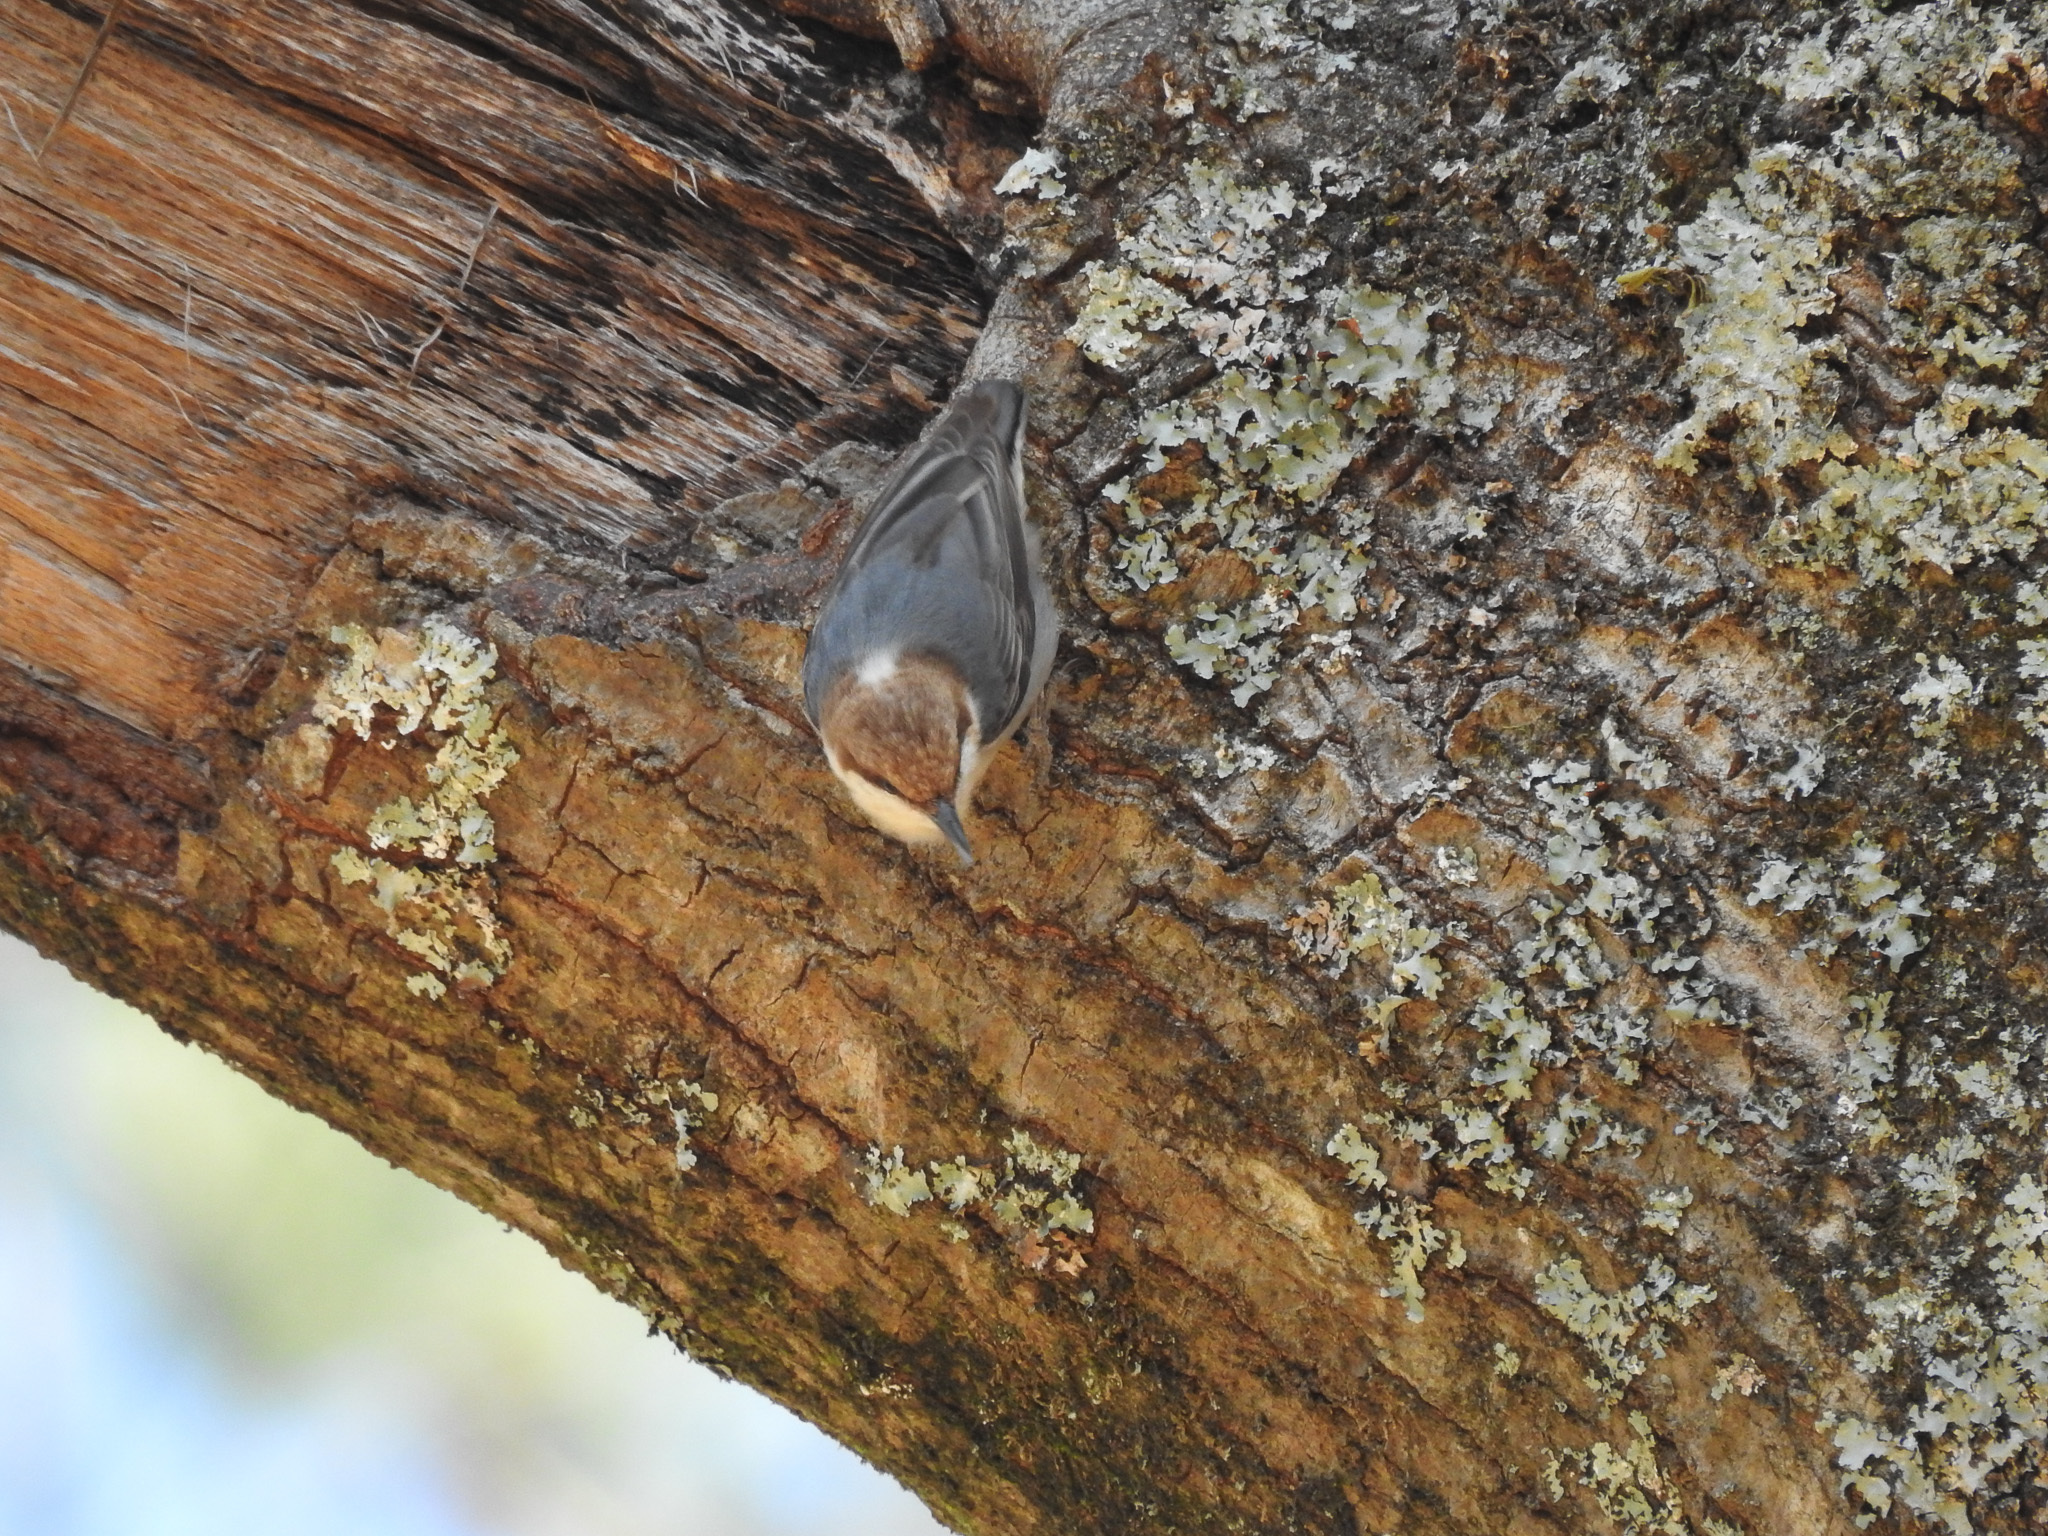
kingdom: Animalia
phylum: Chordata
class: Aves
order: Passeriformes
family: Sittidae
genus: Sitta
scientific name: Sitta pusilla
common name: Brown-headed nuthatch
